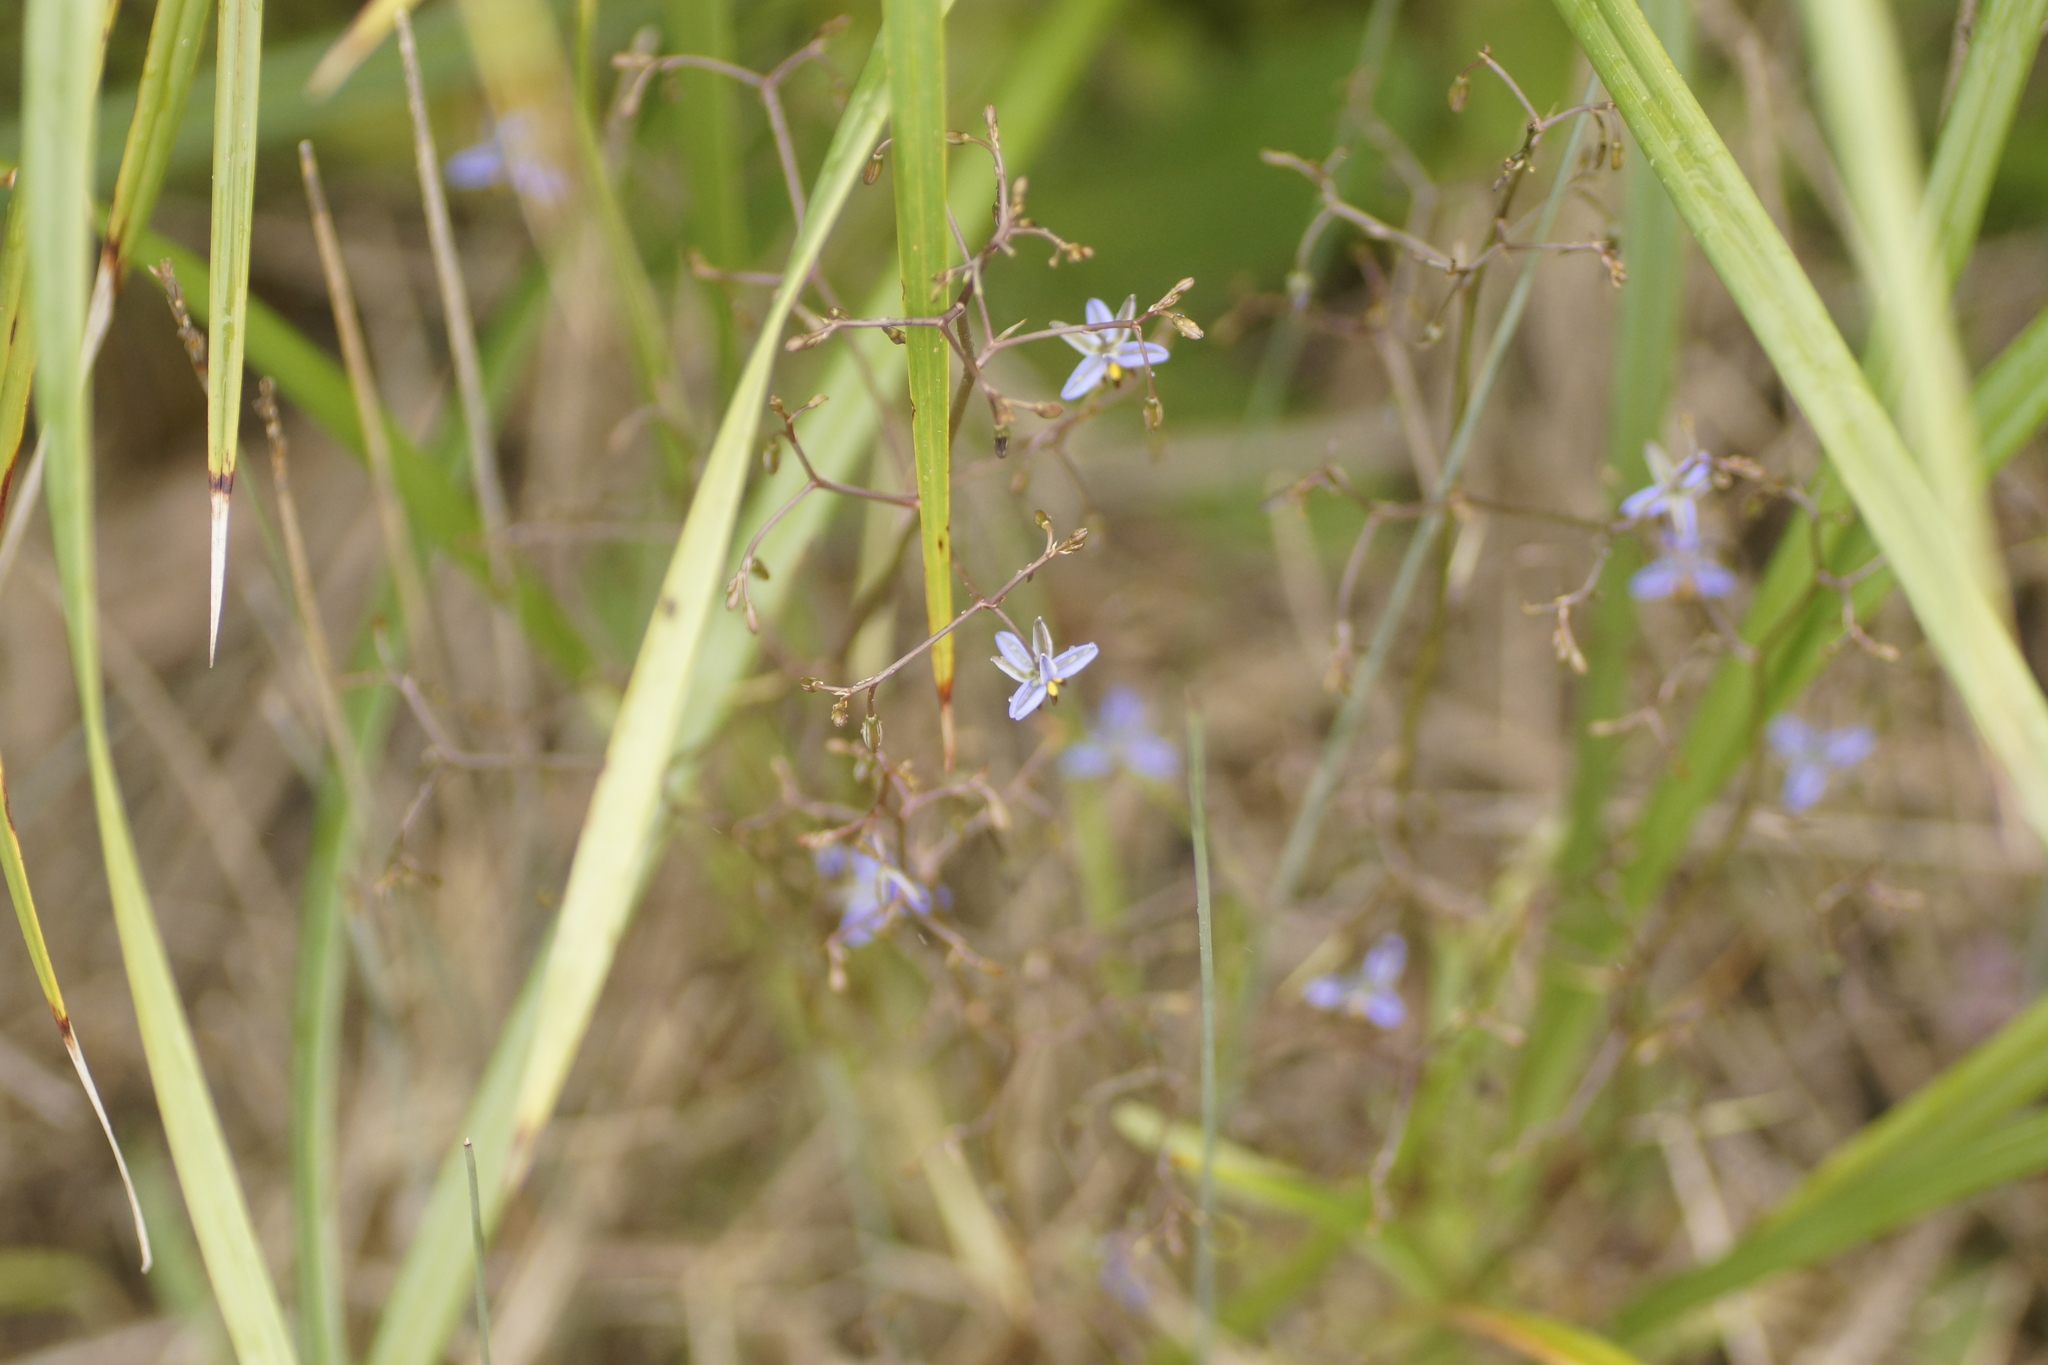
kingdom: Plantae
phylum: Tracheophyta
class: Liliopsida
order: Asparagales
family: Asphodelaceae
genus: Dianella
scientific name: Dianella brevicaulis
